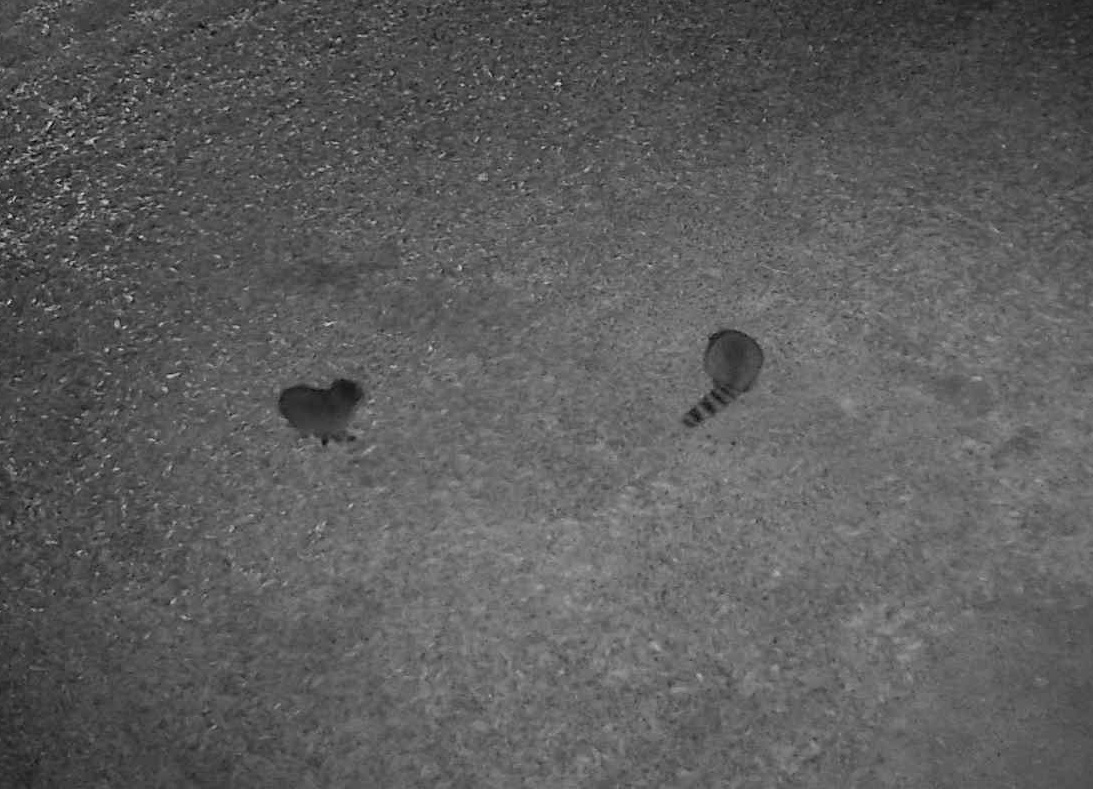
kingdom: Animalia
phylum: Chordata
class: Mammalia
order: Carnivora
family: Procyonidae
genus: Procyon
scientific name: Procyon lotor
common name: Raccoon
